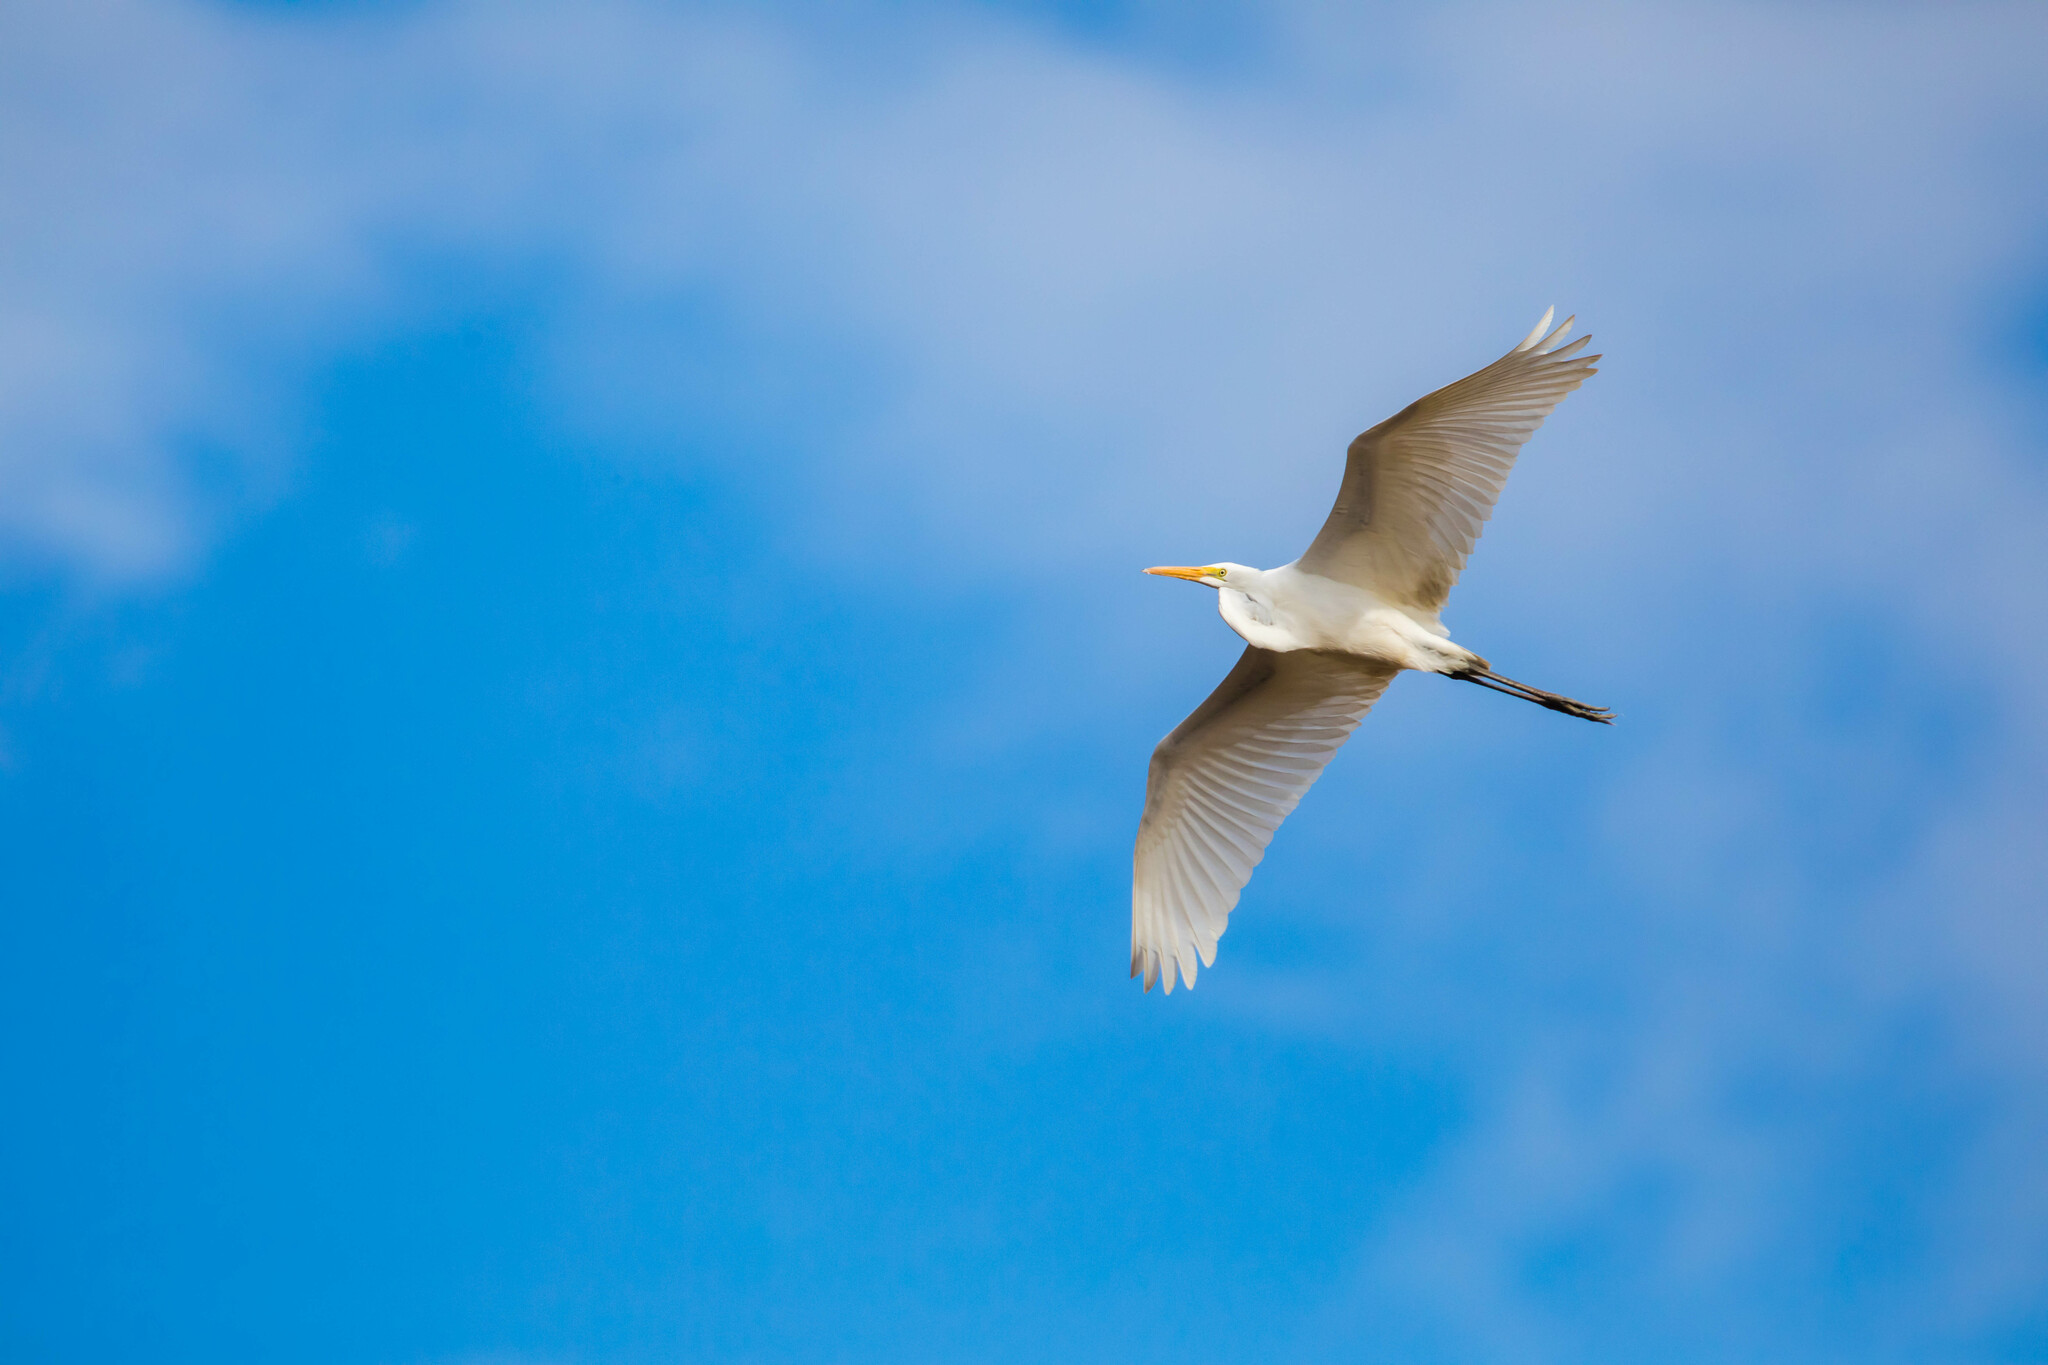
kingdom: Animalia
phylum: Chordata
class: Aves
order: Pelecaniformes
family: Ardeidae
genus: Ardea
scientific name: Ardea alba
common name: Great egret
